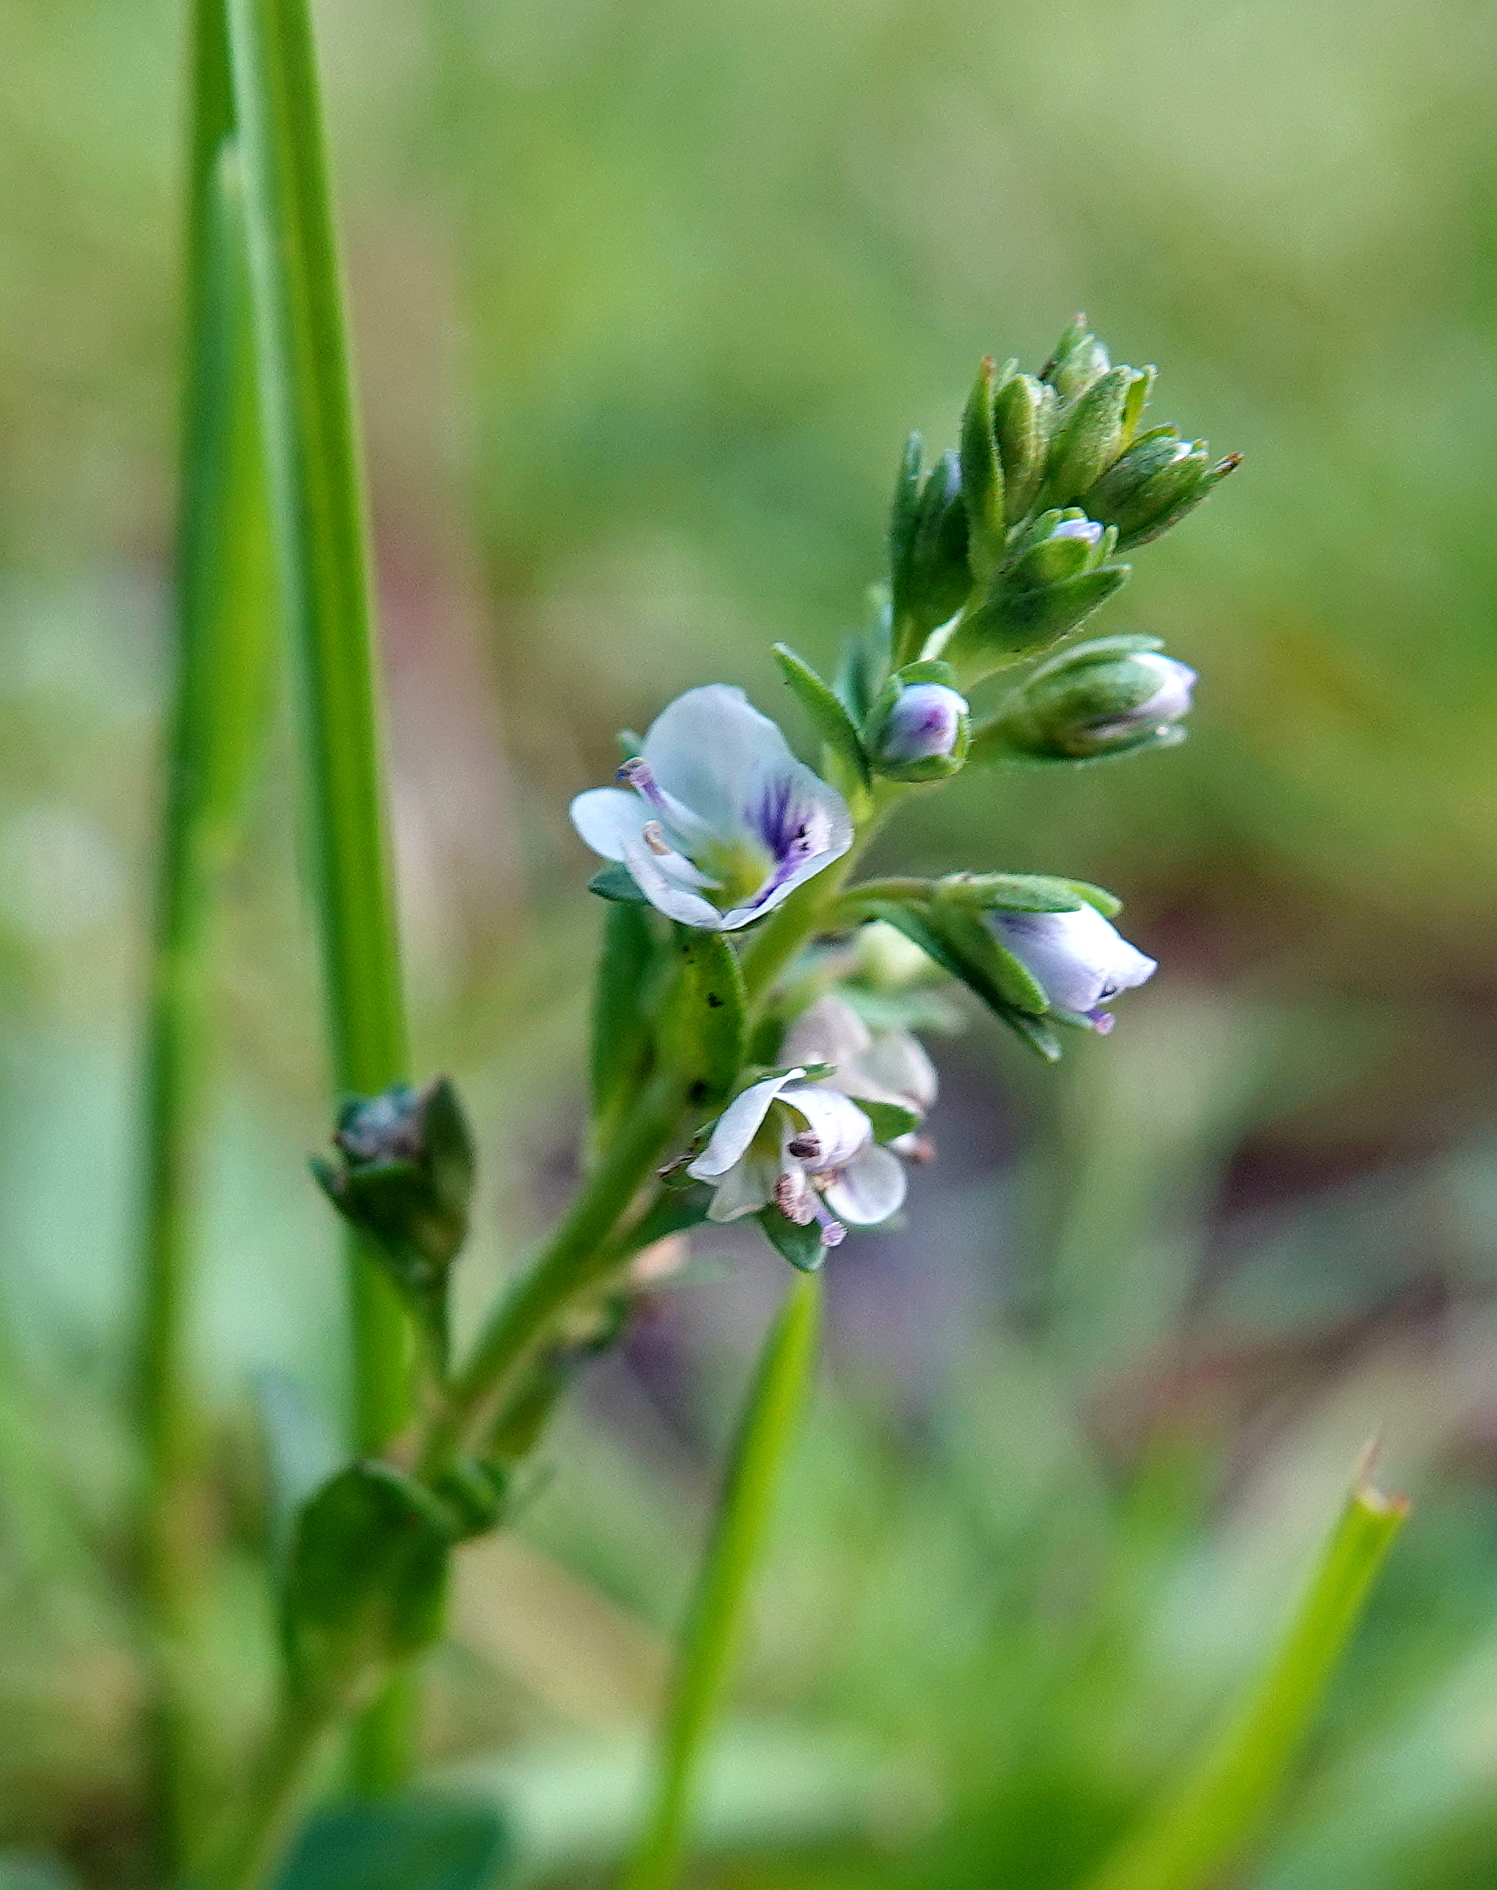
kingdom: Plantae
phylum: Tracheophyta
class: Magnoliopsida
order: Lamiales
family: Plantaginaceae
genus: Veronica
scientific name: Veronica serpyllifolia
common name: Thyme-leaved speedwell
